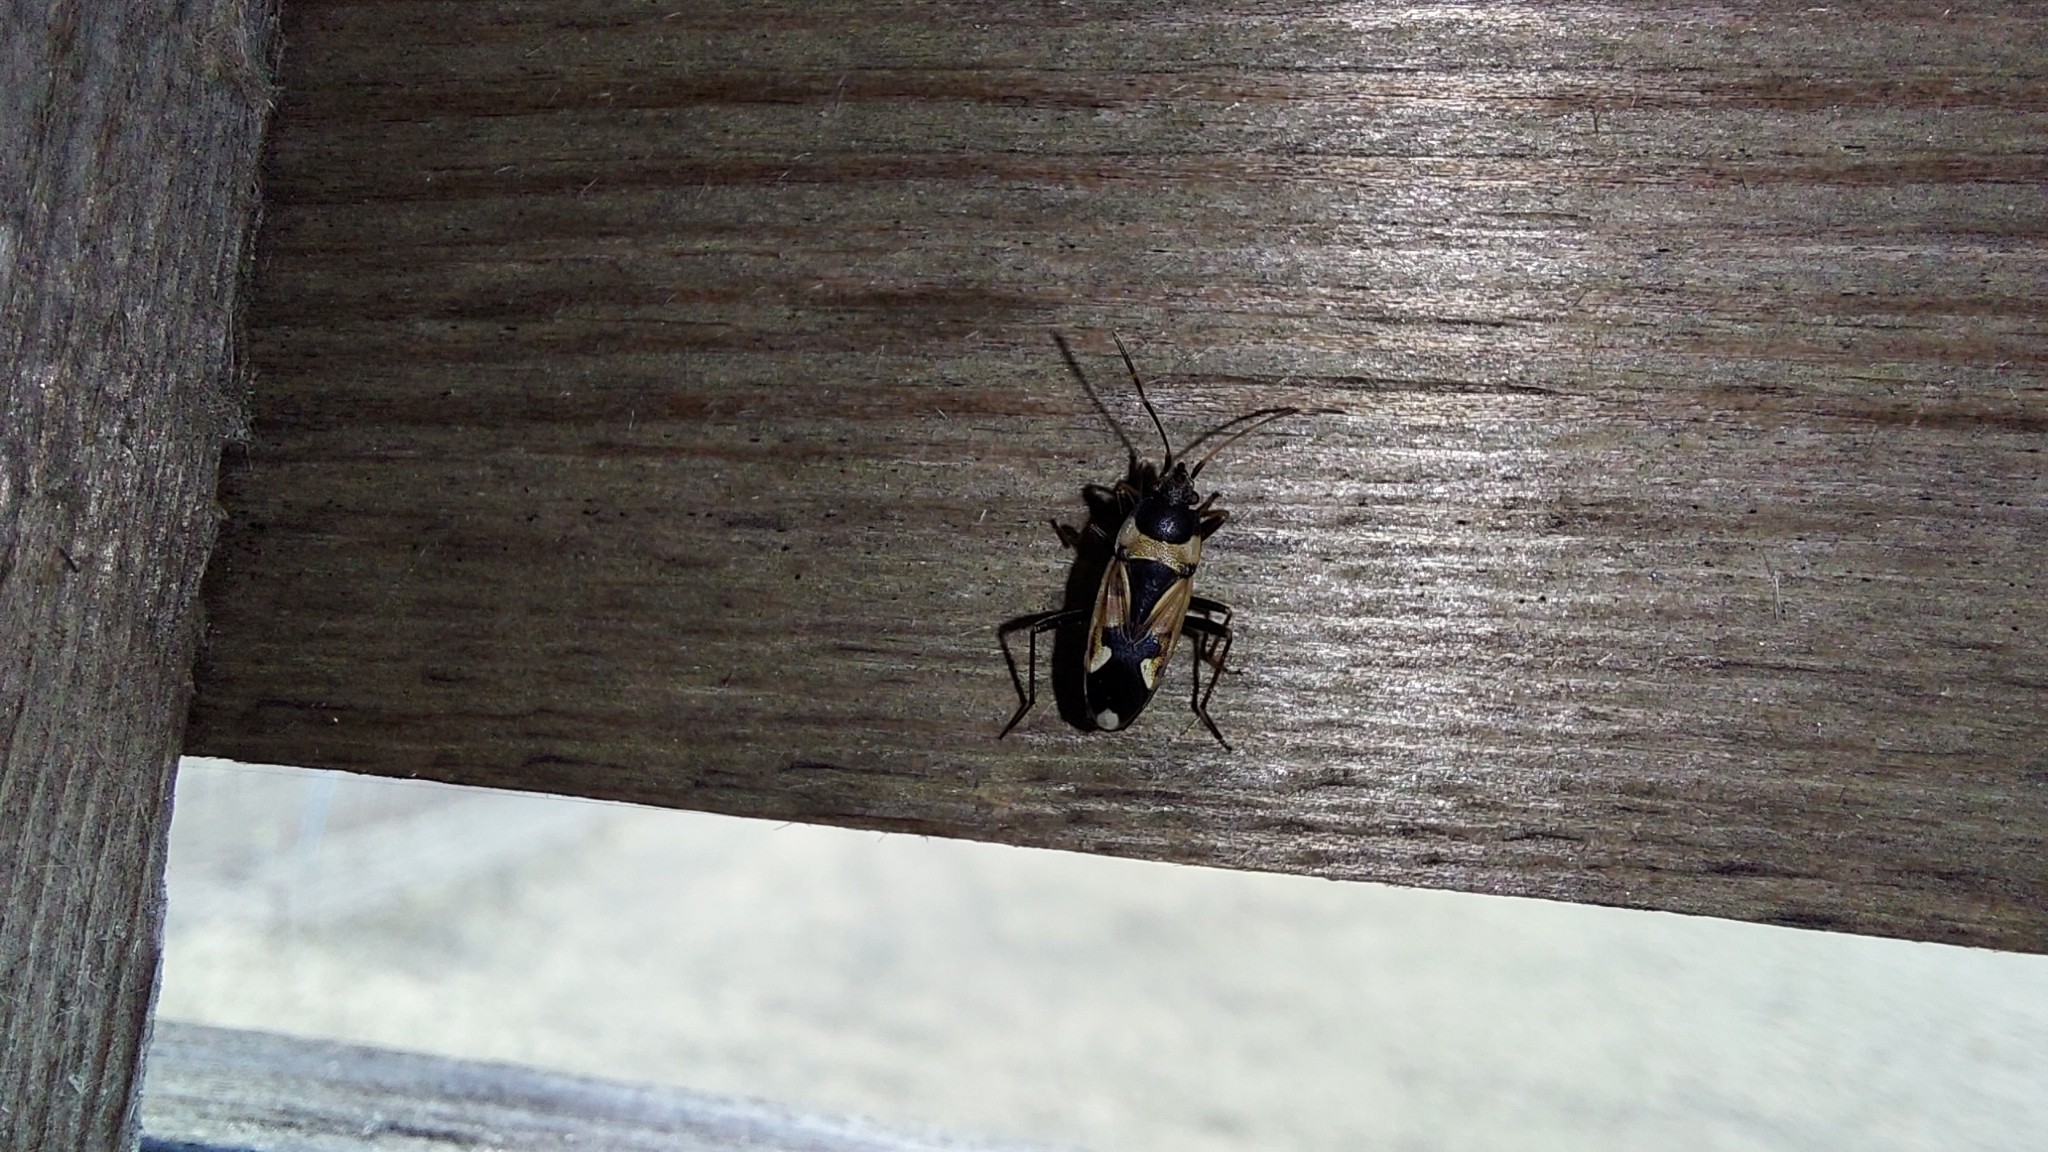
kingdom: Animalia
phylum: Arthropoda
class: Insecta
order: Hemiptera
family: Rhyparochromidae
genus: Raglius
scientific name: Raglius confusus
